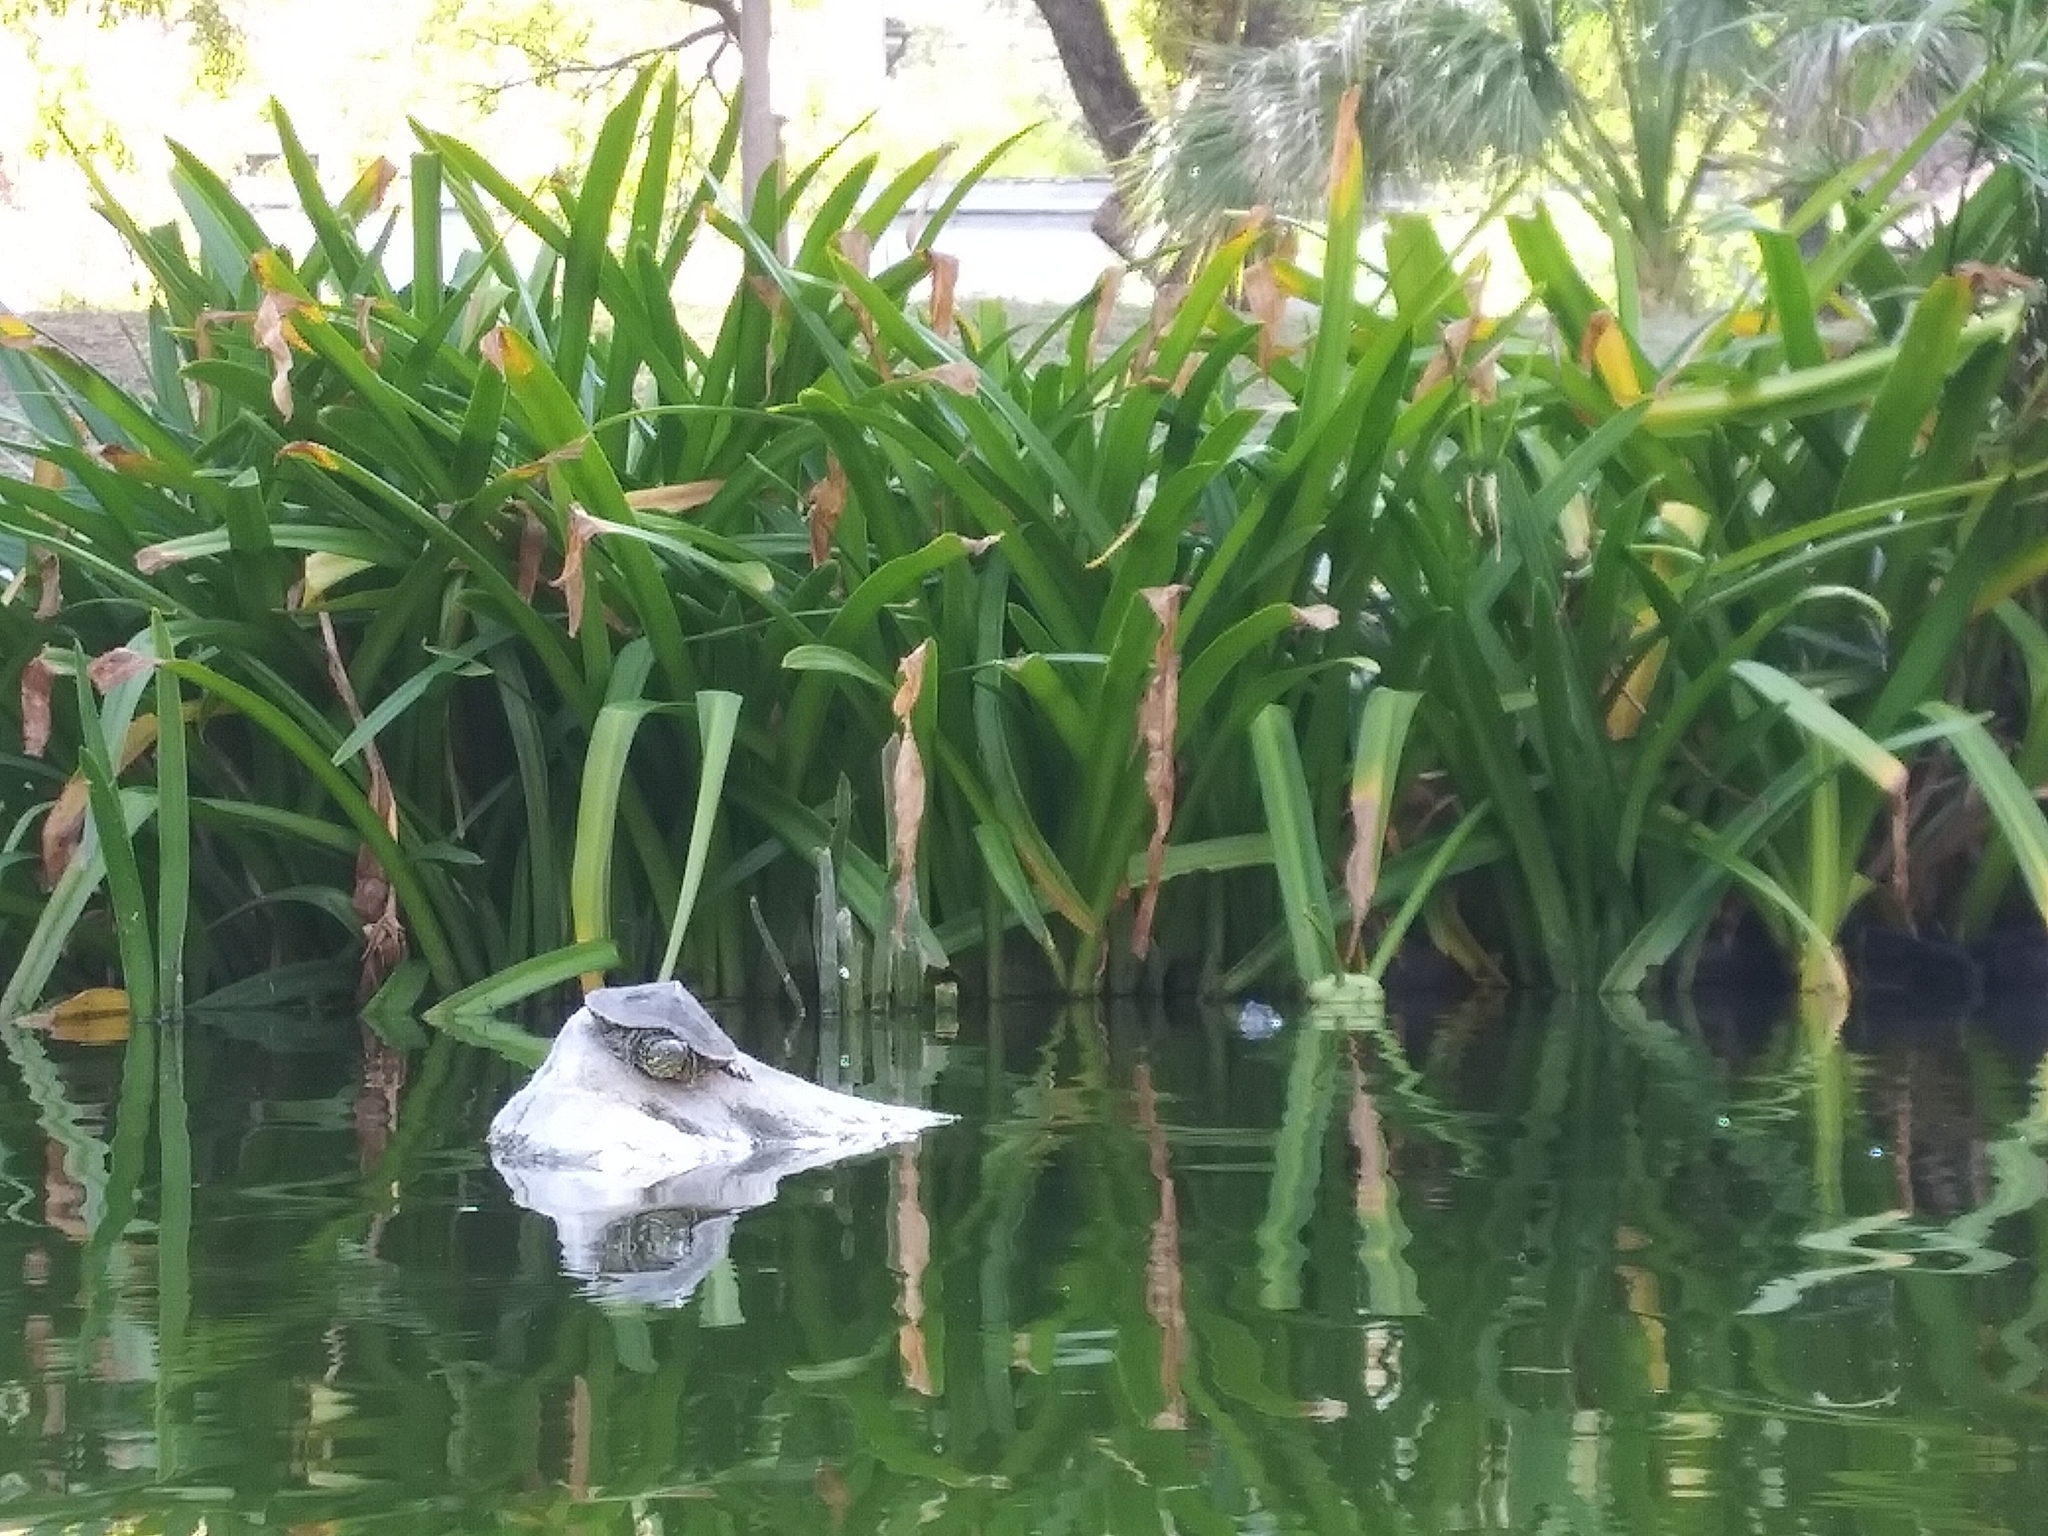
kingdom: Animalia
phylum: Chordata
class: Testudines
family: Emydidae
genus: Trachemys
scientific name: Trachemys scripta
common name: Slider
